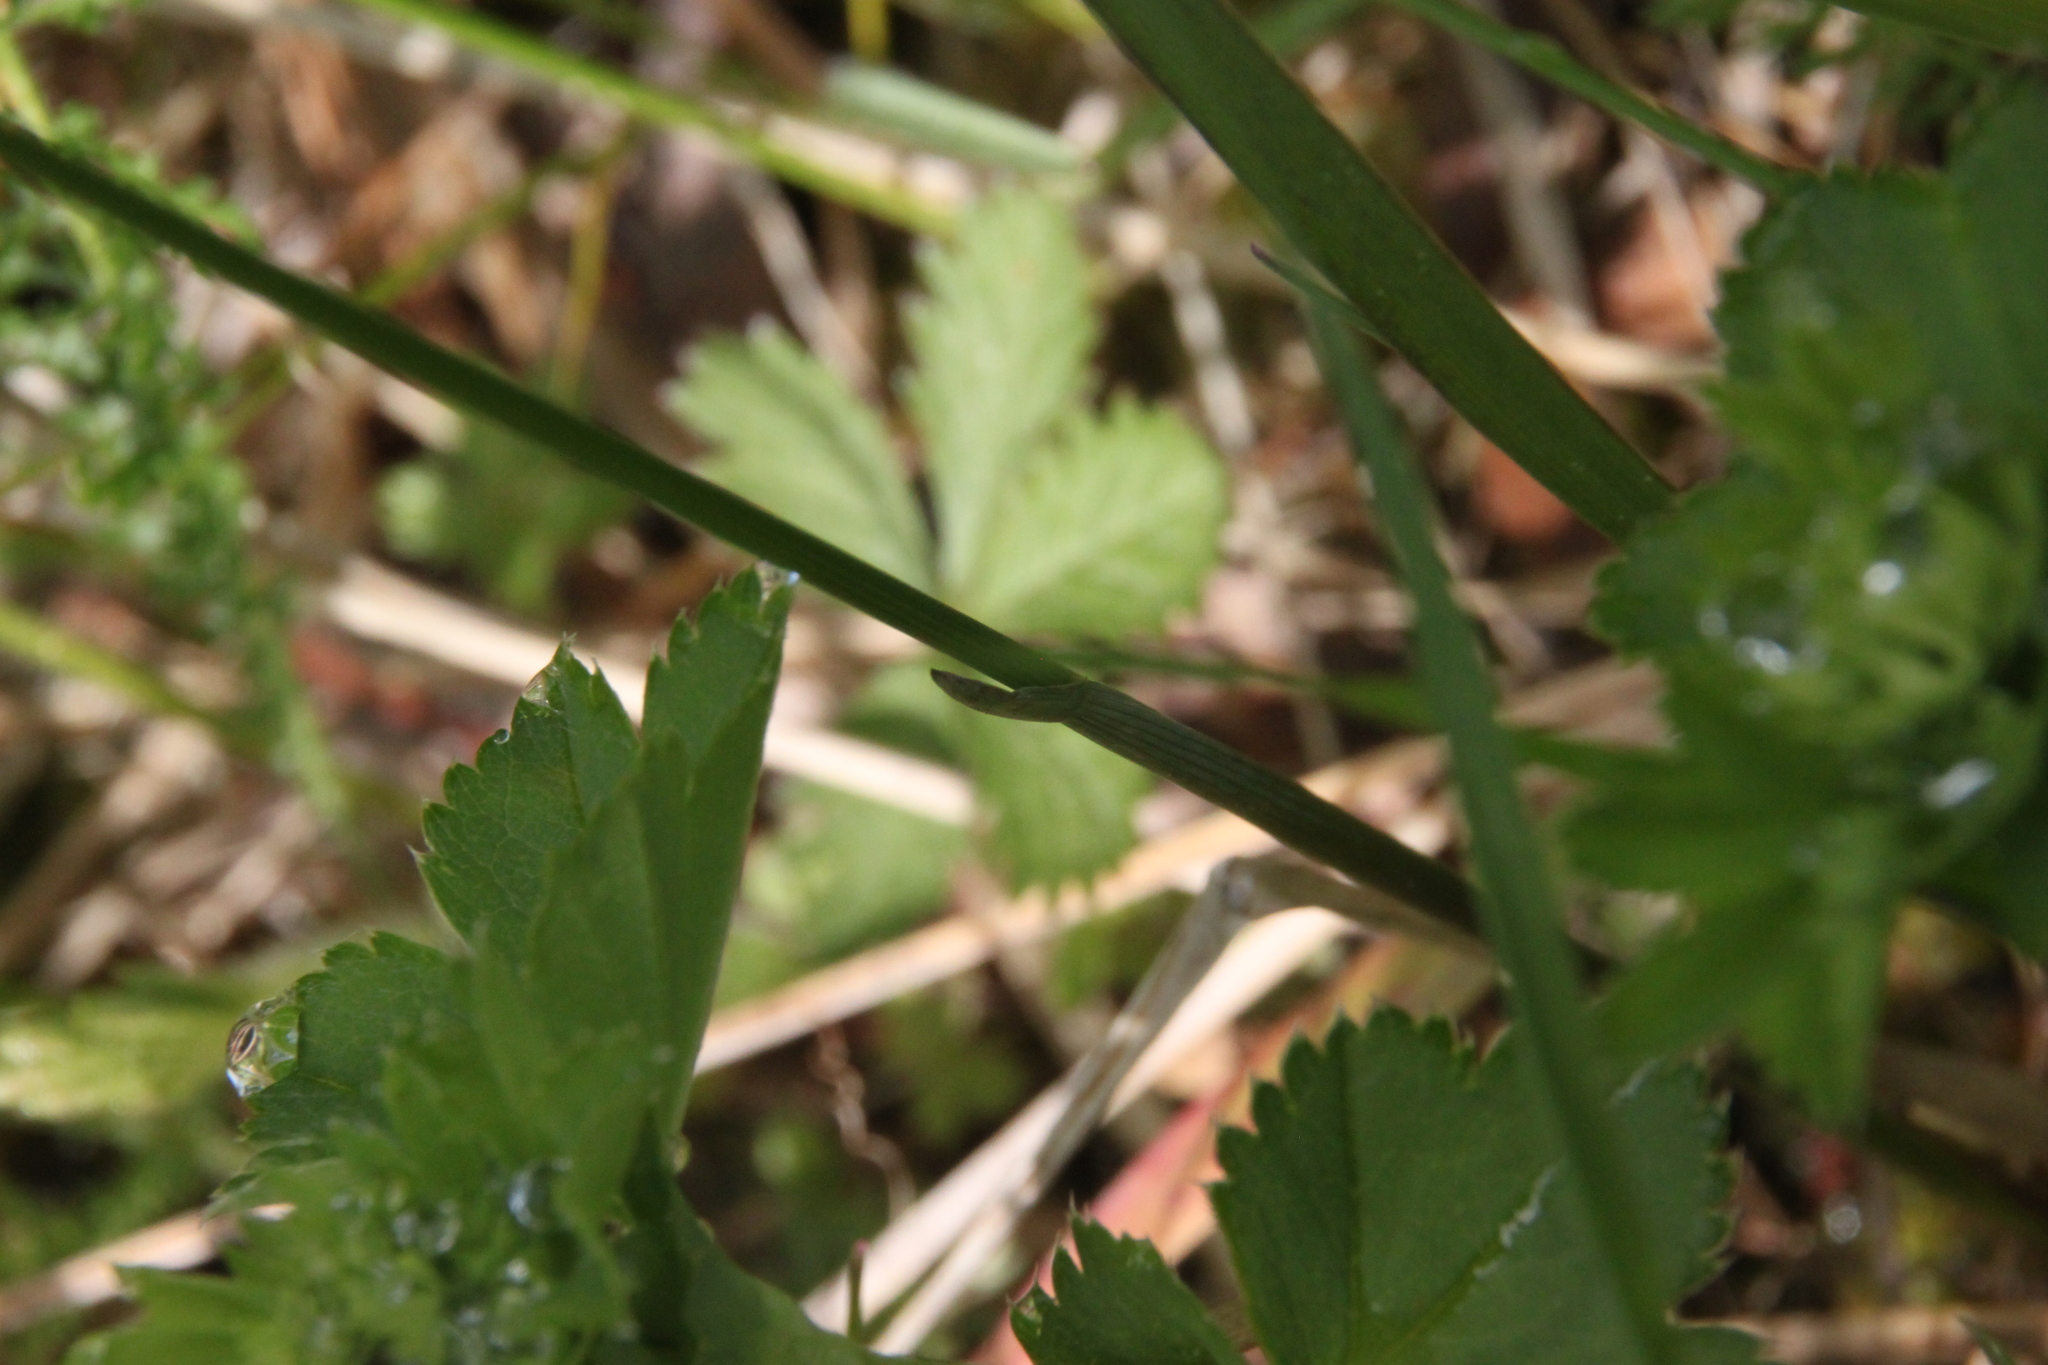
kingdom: Plantae
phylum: Tracheophyta
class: Liliopsida
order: Poales
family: Poaceae
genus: Anthoxanthum
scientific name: Anthoxanthum nitens
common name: Holy grass
